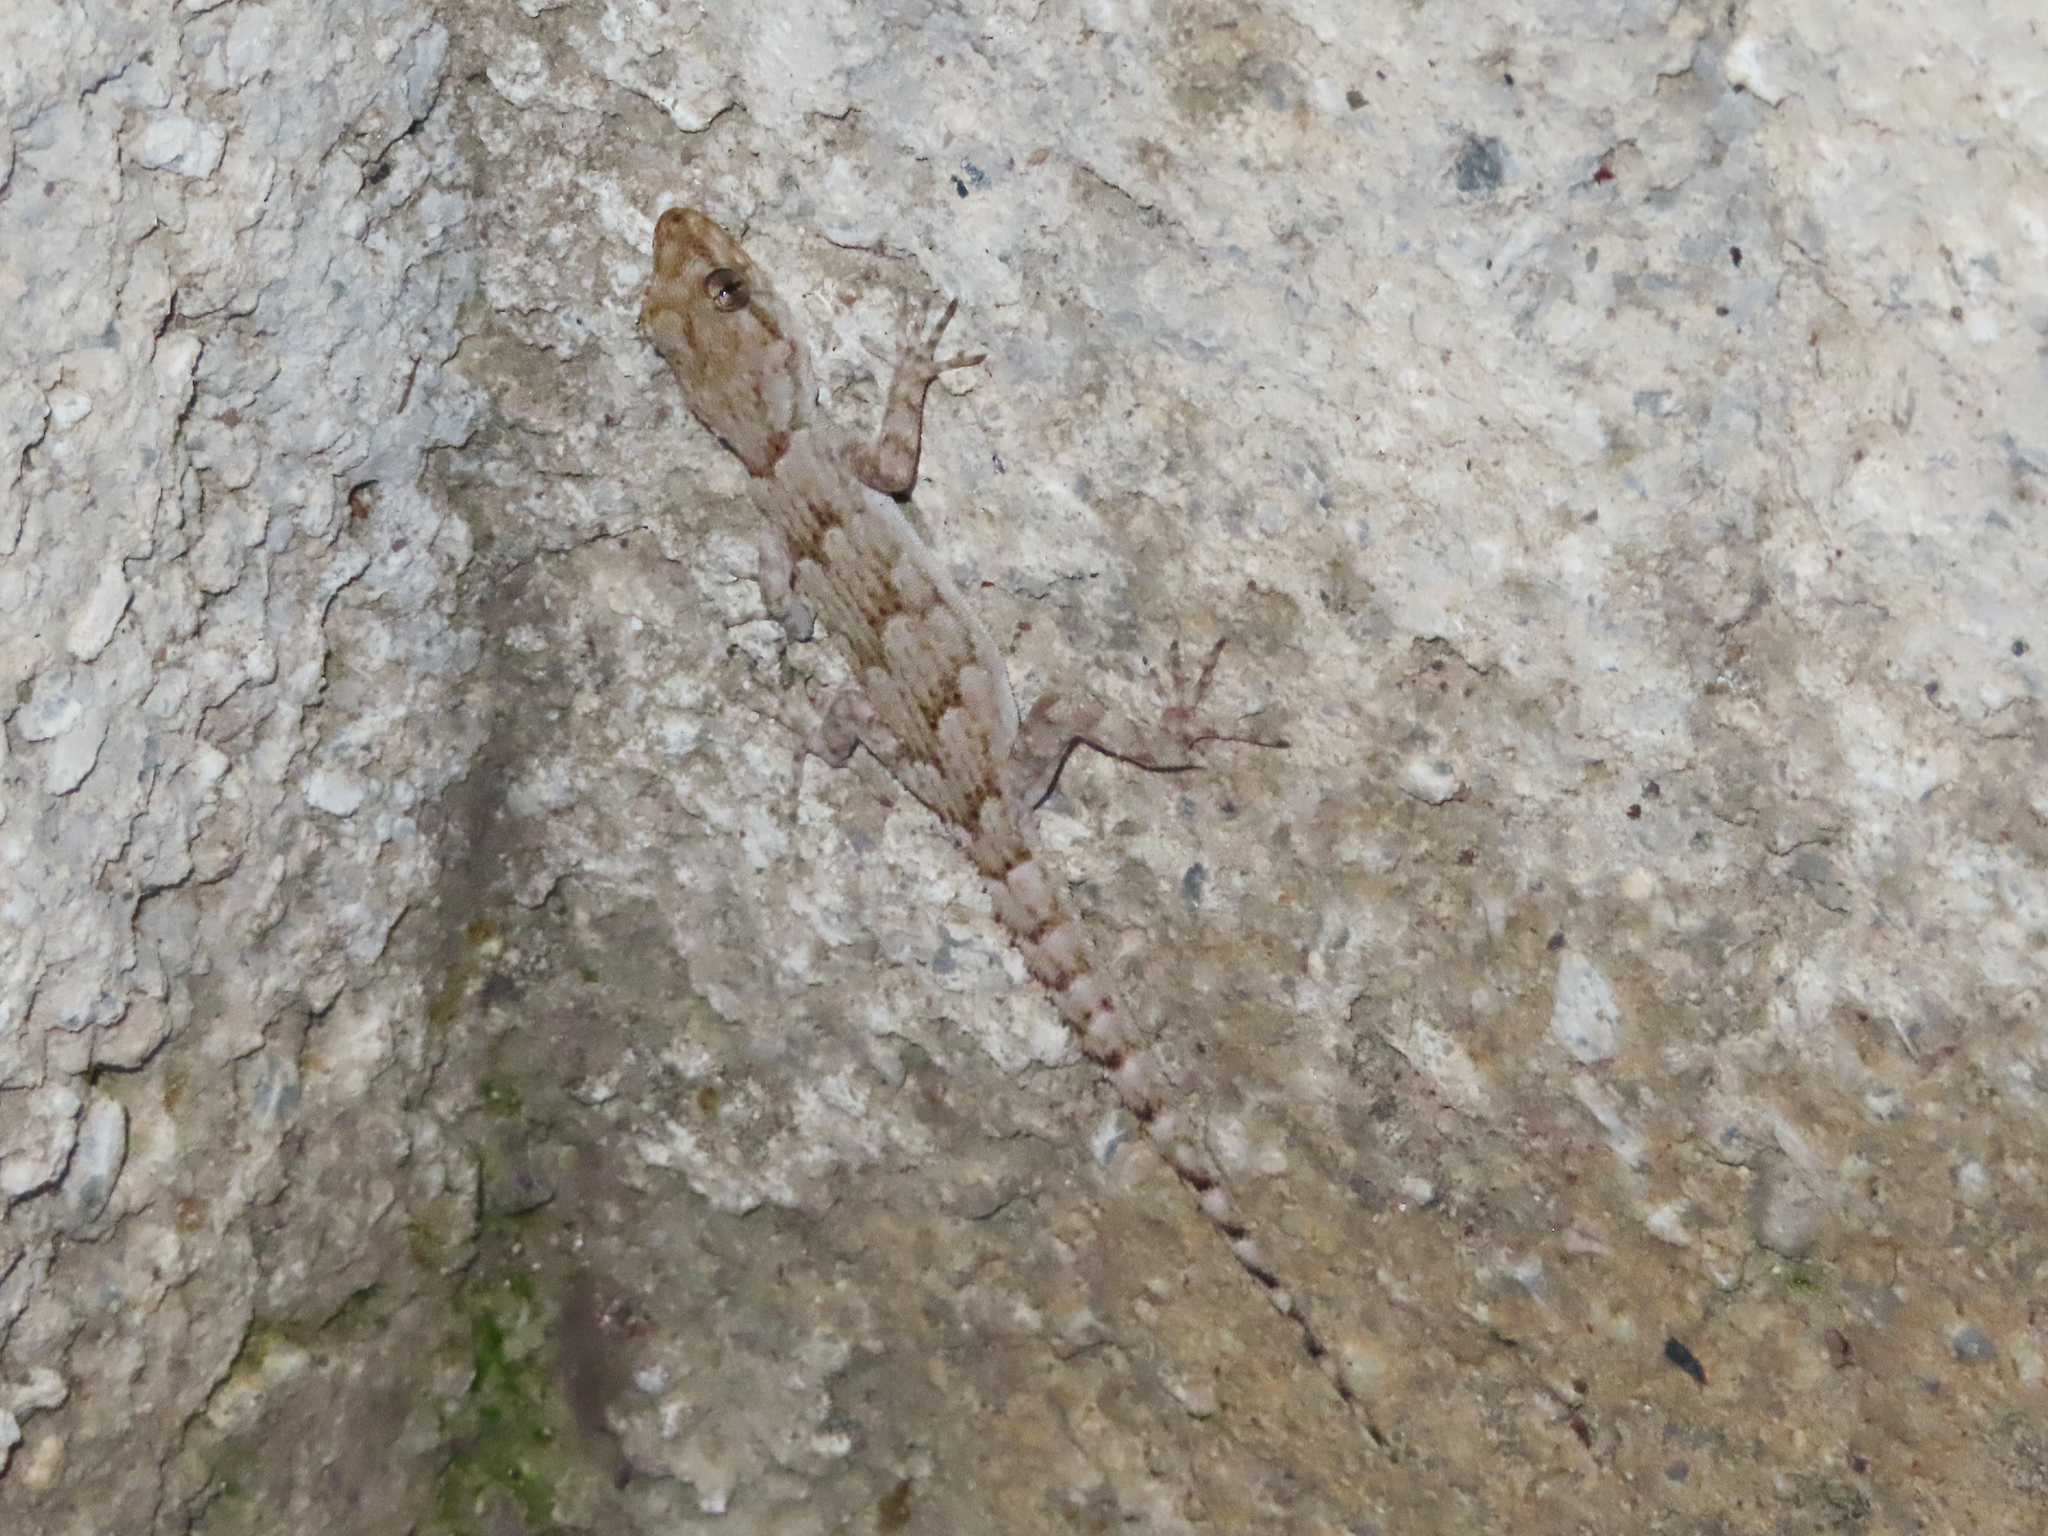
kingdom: Animalia
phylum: Chordata
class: Squamata
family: Gekkonidae
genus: Mediodactylus
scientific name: Mediodactylus kotschyi
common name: Kotschy's gecko
